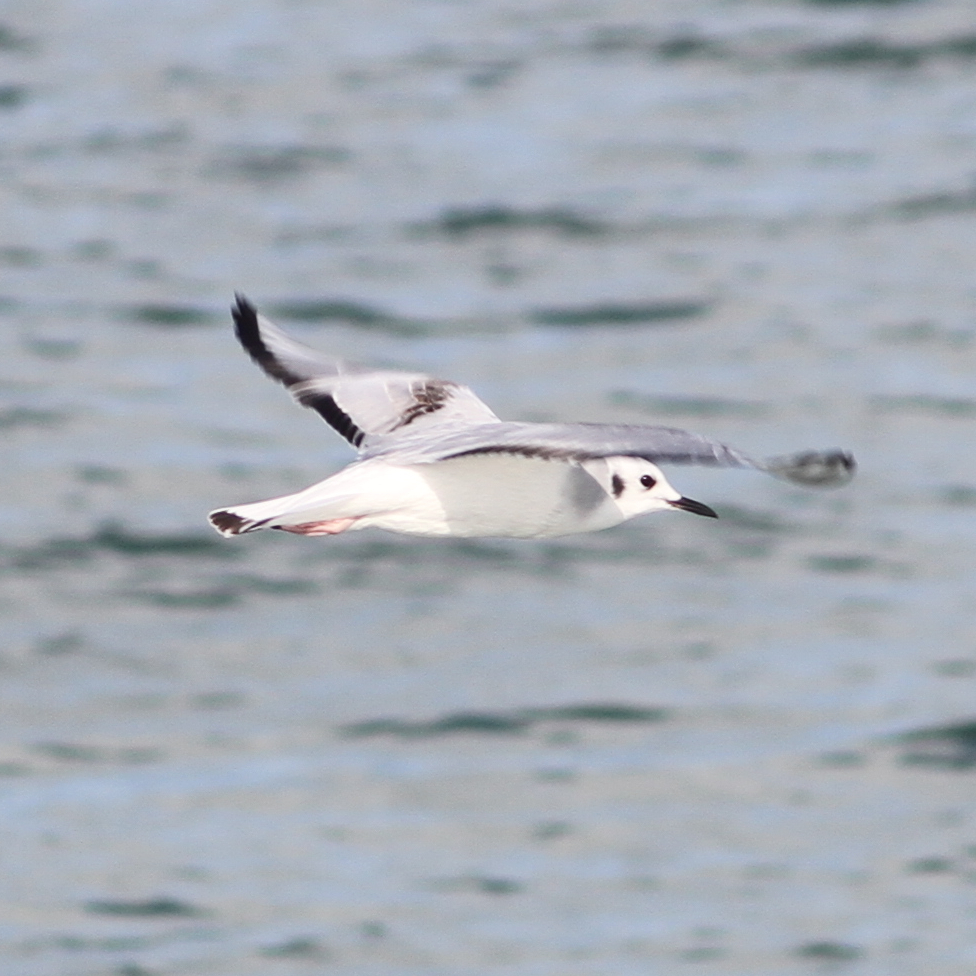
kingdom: Animalia
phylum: Chordata
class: Aves
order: Charadriiformes
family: Laridae
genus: Chroicocephalus
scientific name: Chroicocephalus philadelphia
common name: Bonaparte's gull
